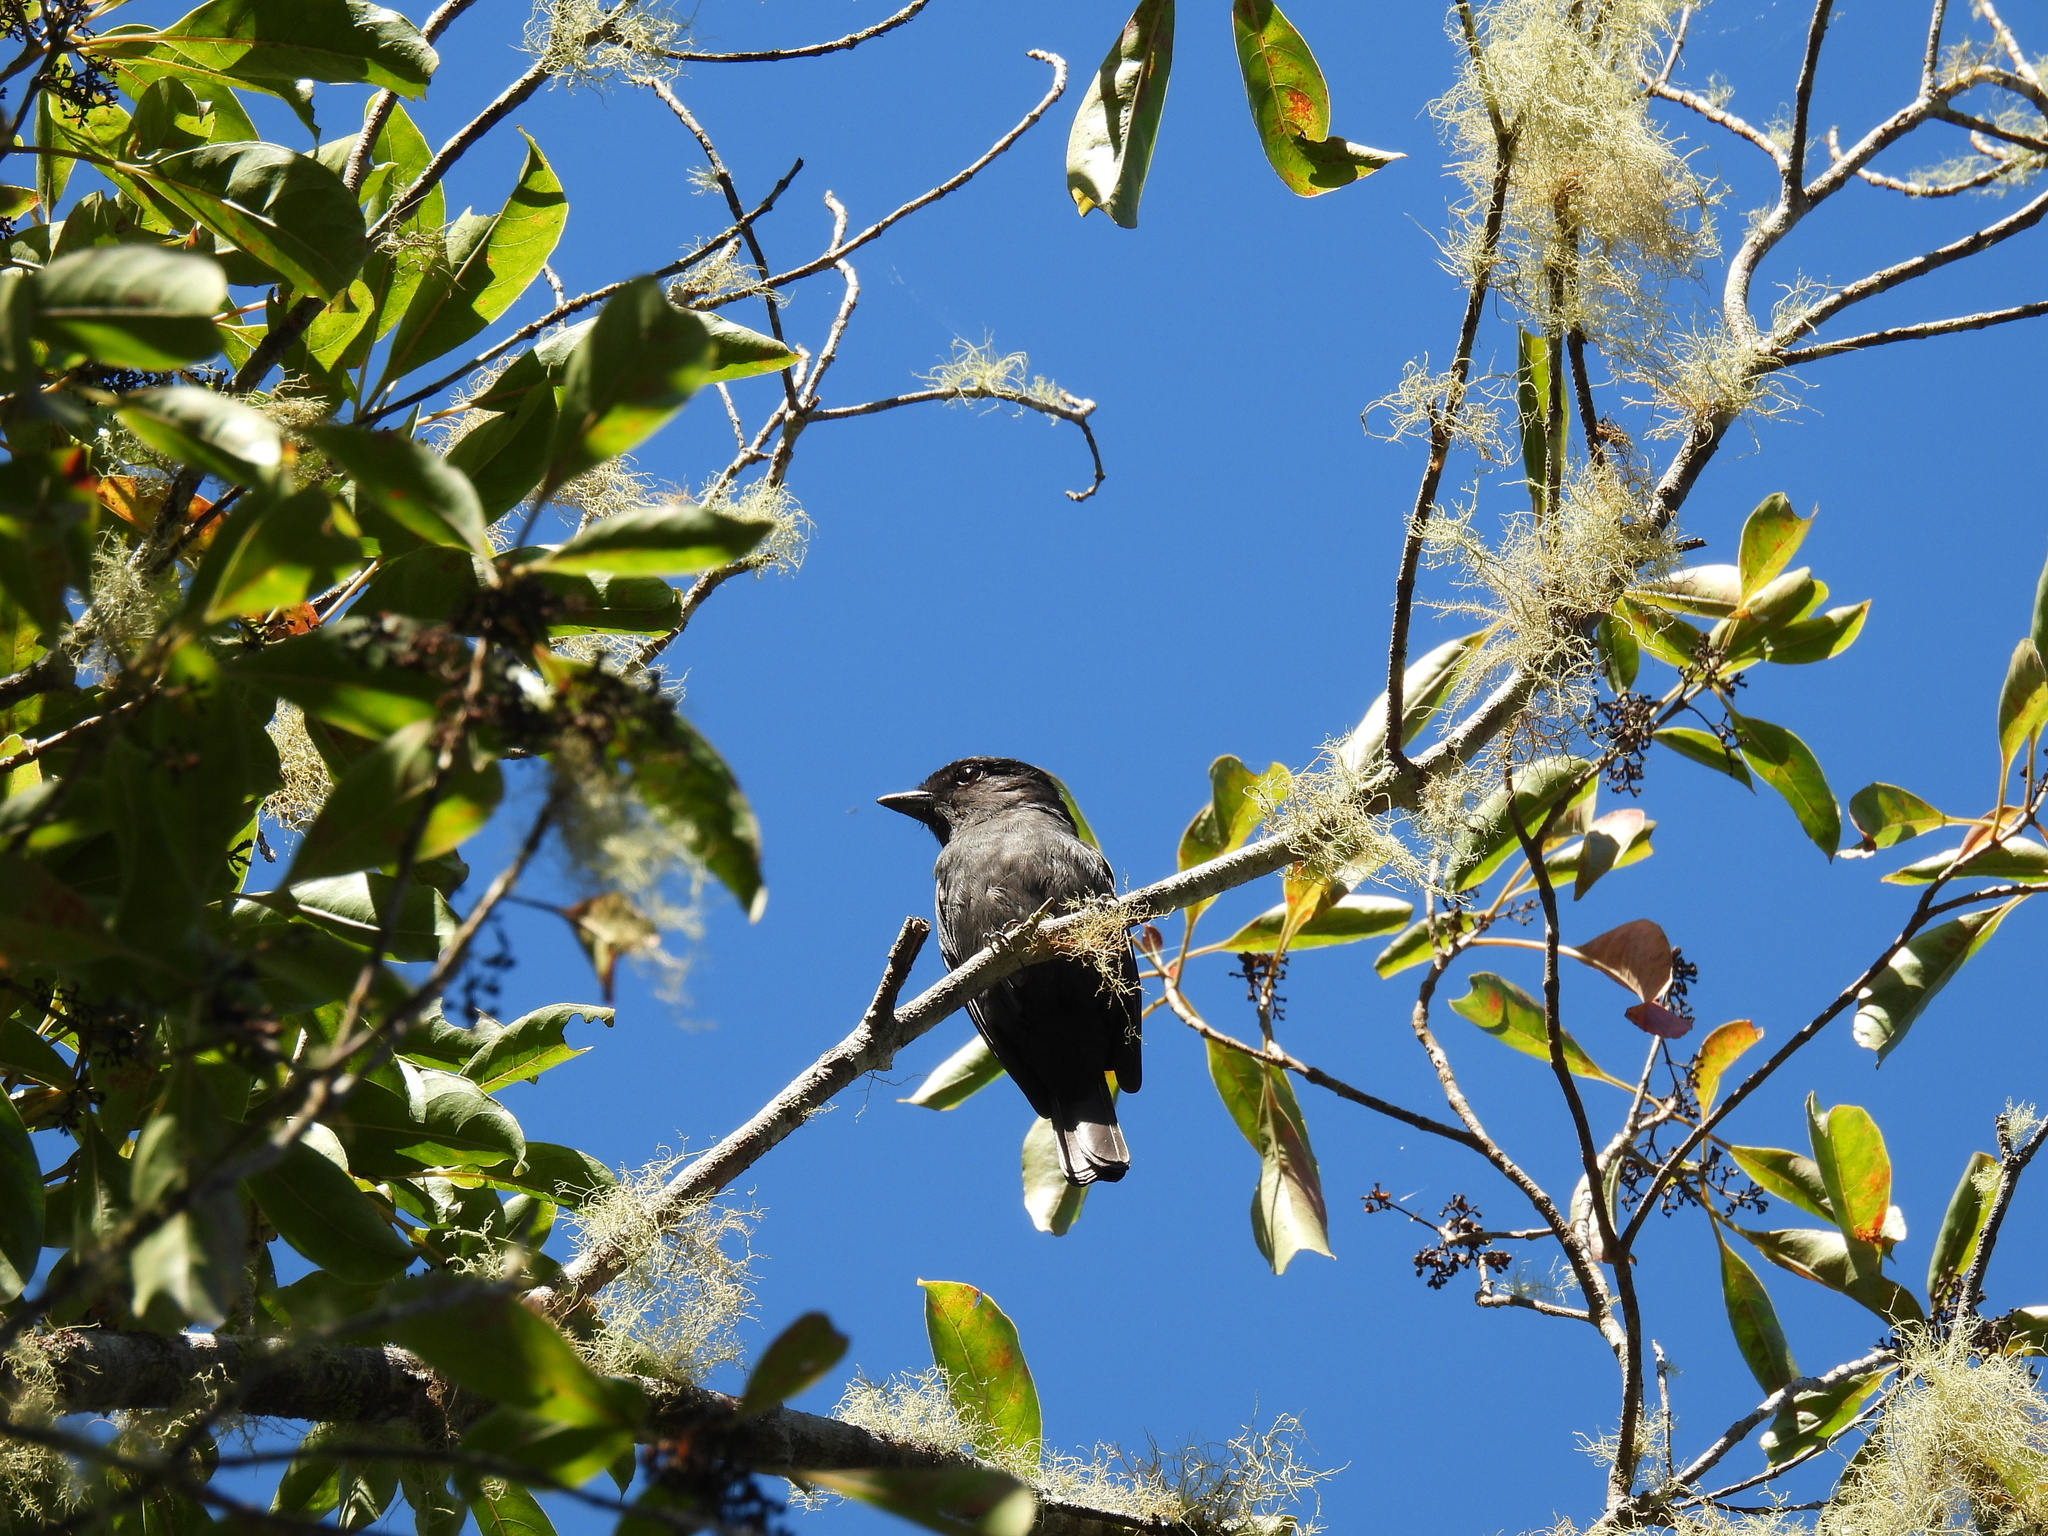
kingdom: Animalia
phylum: Chordata
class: Aves
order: Passeriformes
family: Cotingidae
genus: Pachyramphus
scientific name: Pachyramphus niger
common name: Jamaican becard
